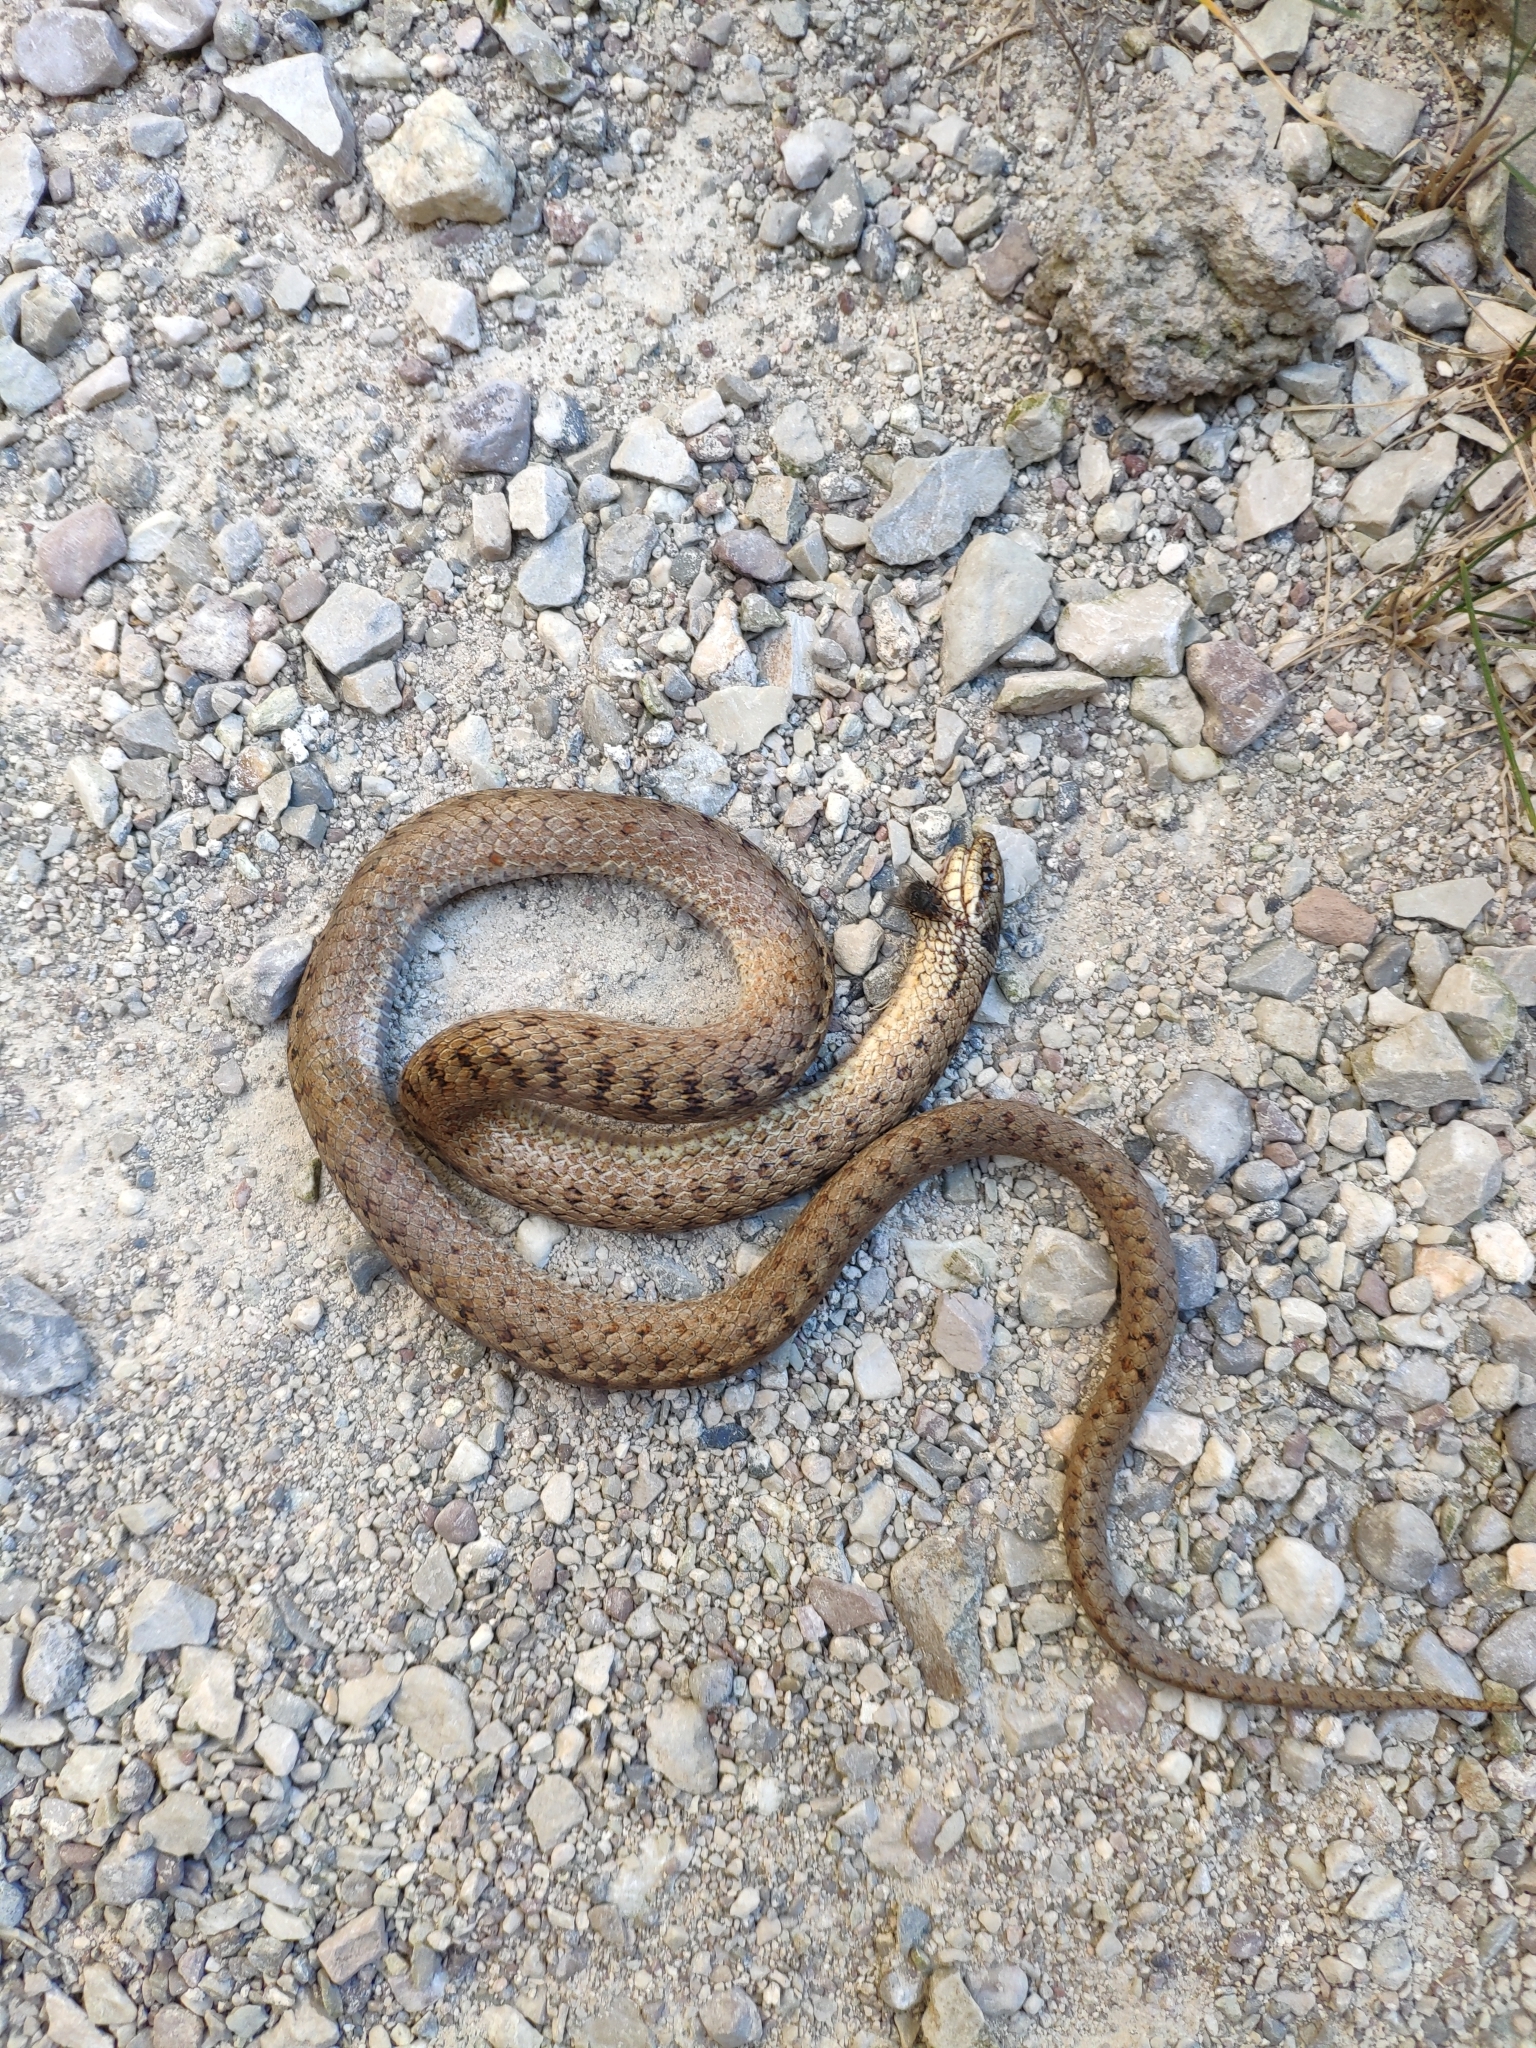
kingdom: Animalia
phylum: Chordata
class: Squamata
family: Colubridae
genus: Coronella
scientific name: Coronella austriaca
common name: Smooth snake
